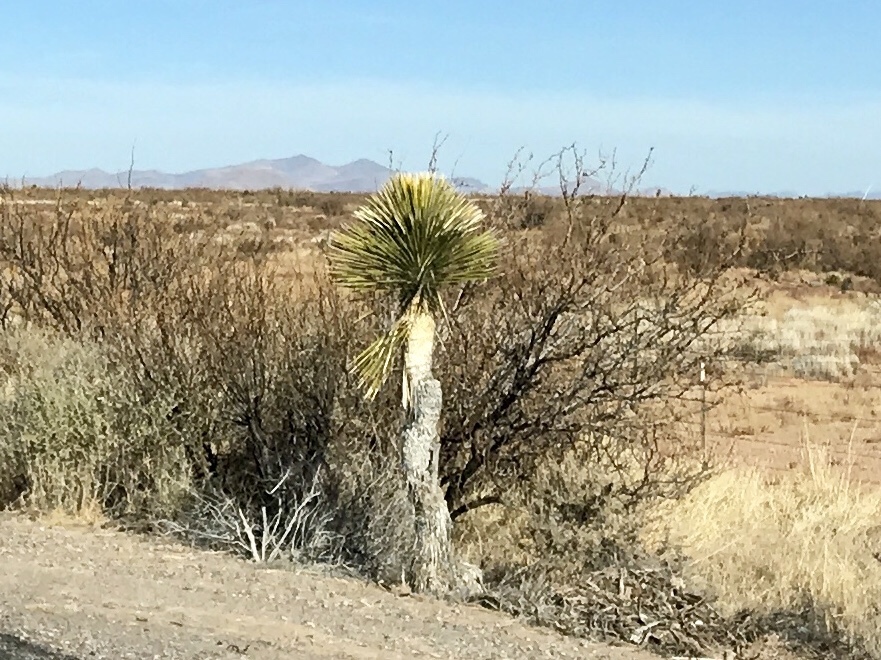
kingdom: Plantae
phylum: Tracheophyta
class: Liliopsida
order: Asparagales
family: Asparagaceae
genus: Yucca
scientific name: Yucca elata
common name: Palmella
